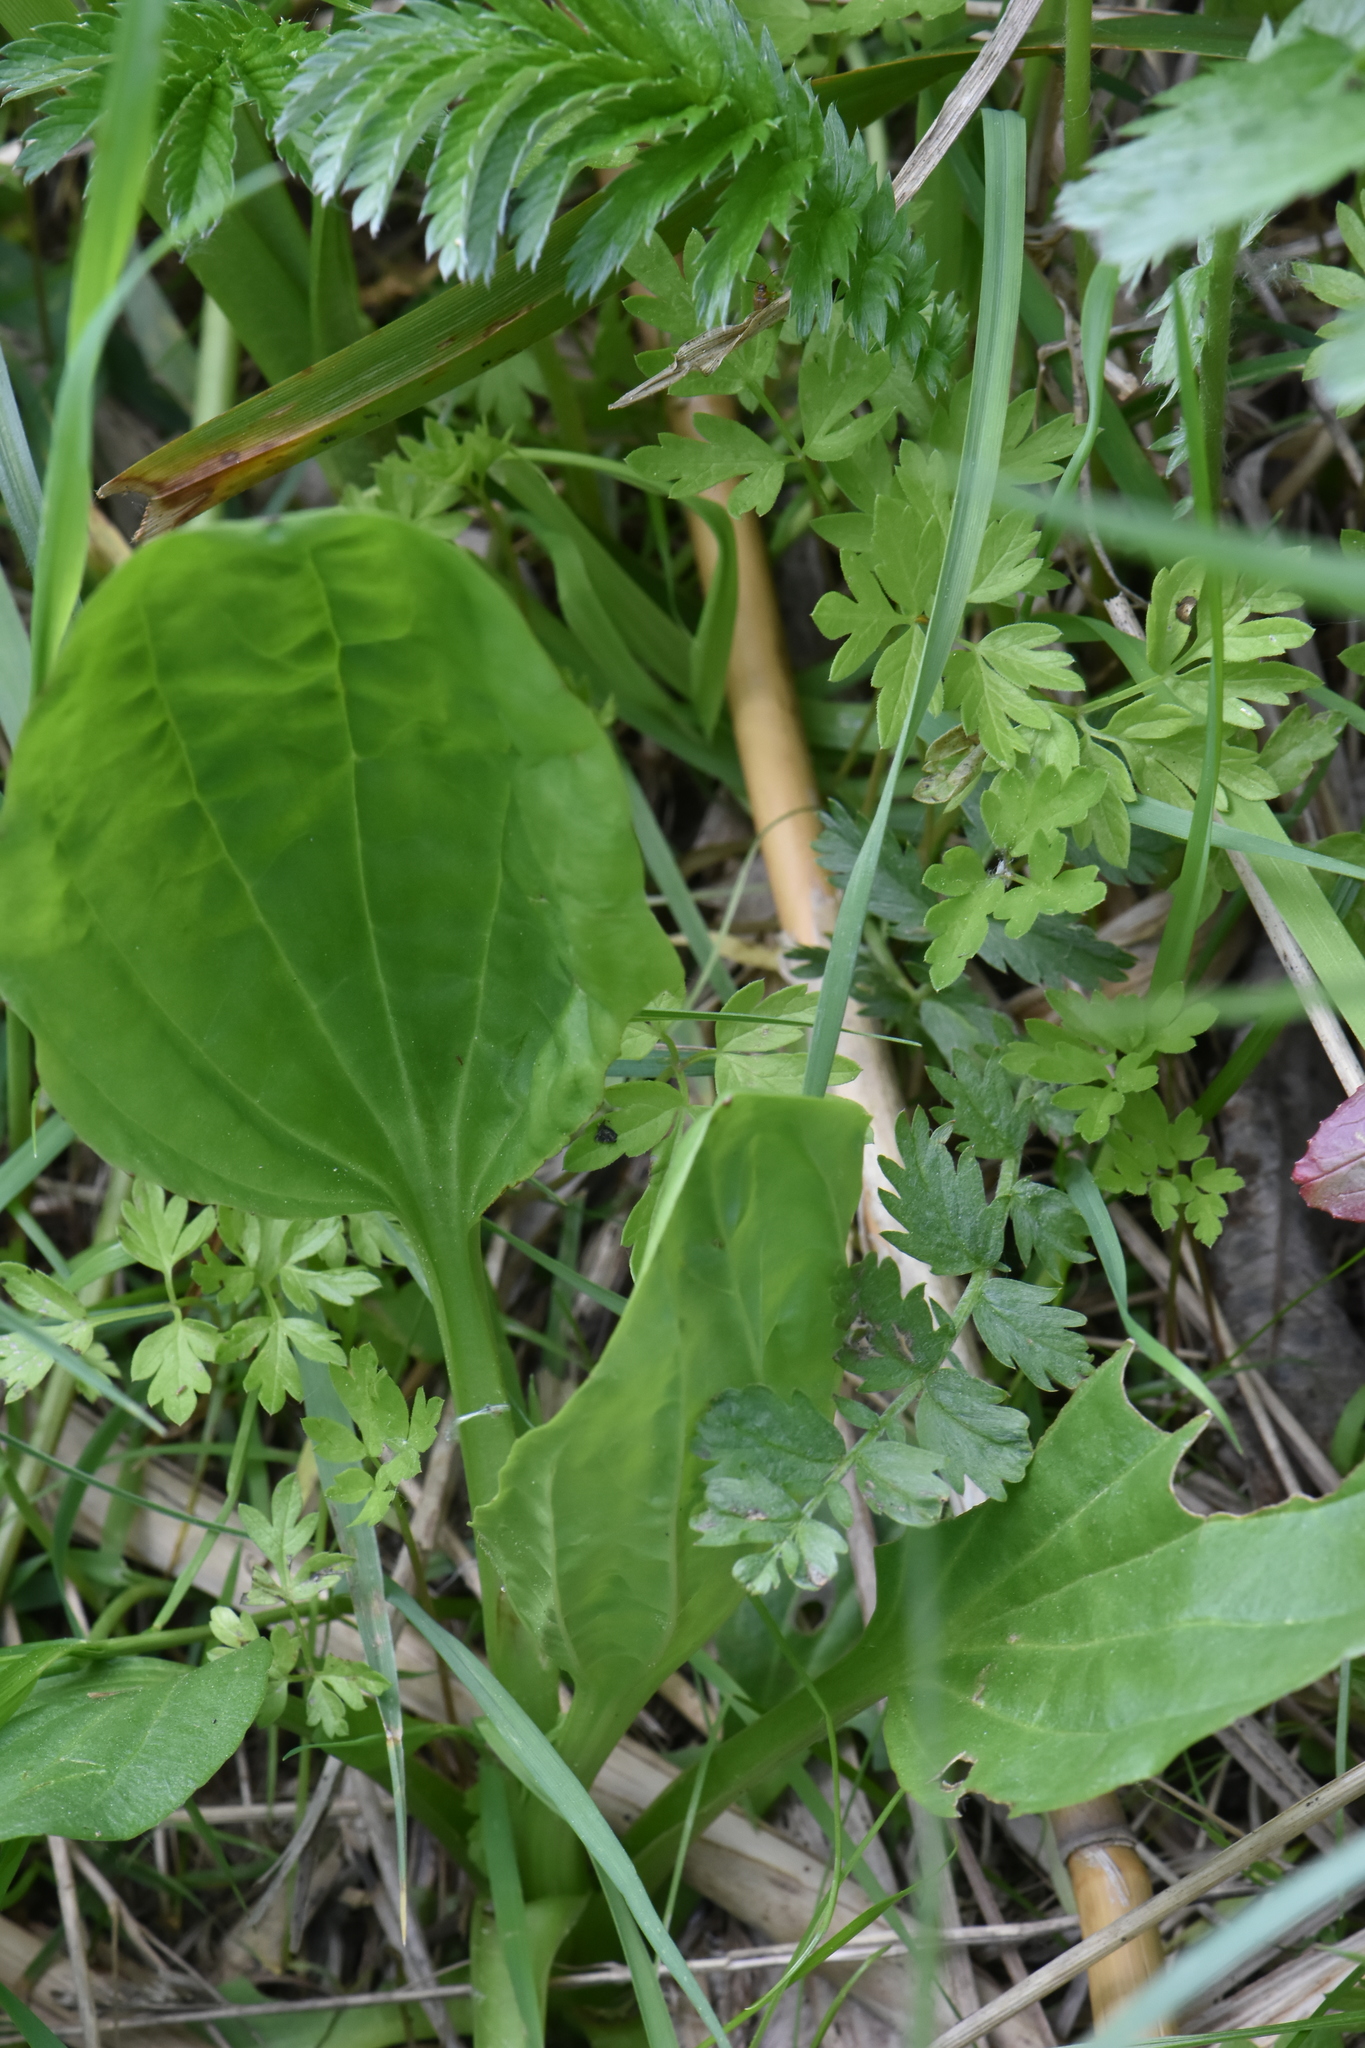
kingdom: Plantae
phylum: Tracheophyta
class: Magnoliopsida
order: Lamiales
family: Plantaginaceae
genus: Plantago
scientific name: Plantago major
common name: Common plantain
